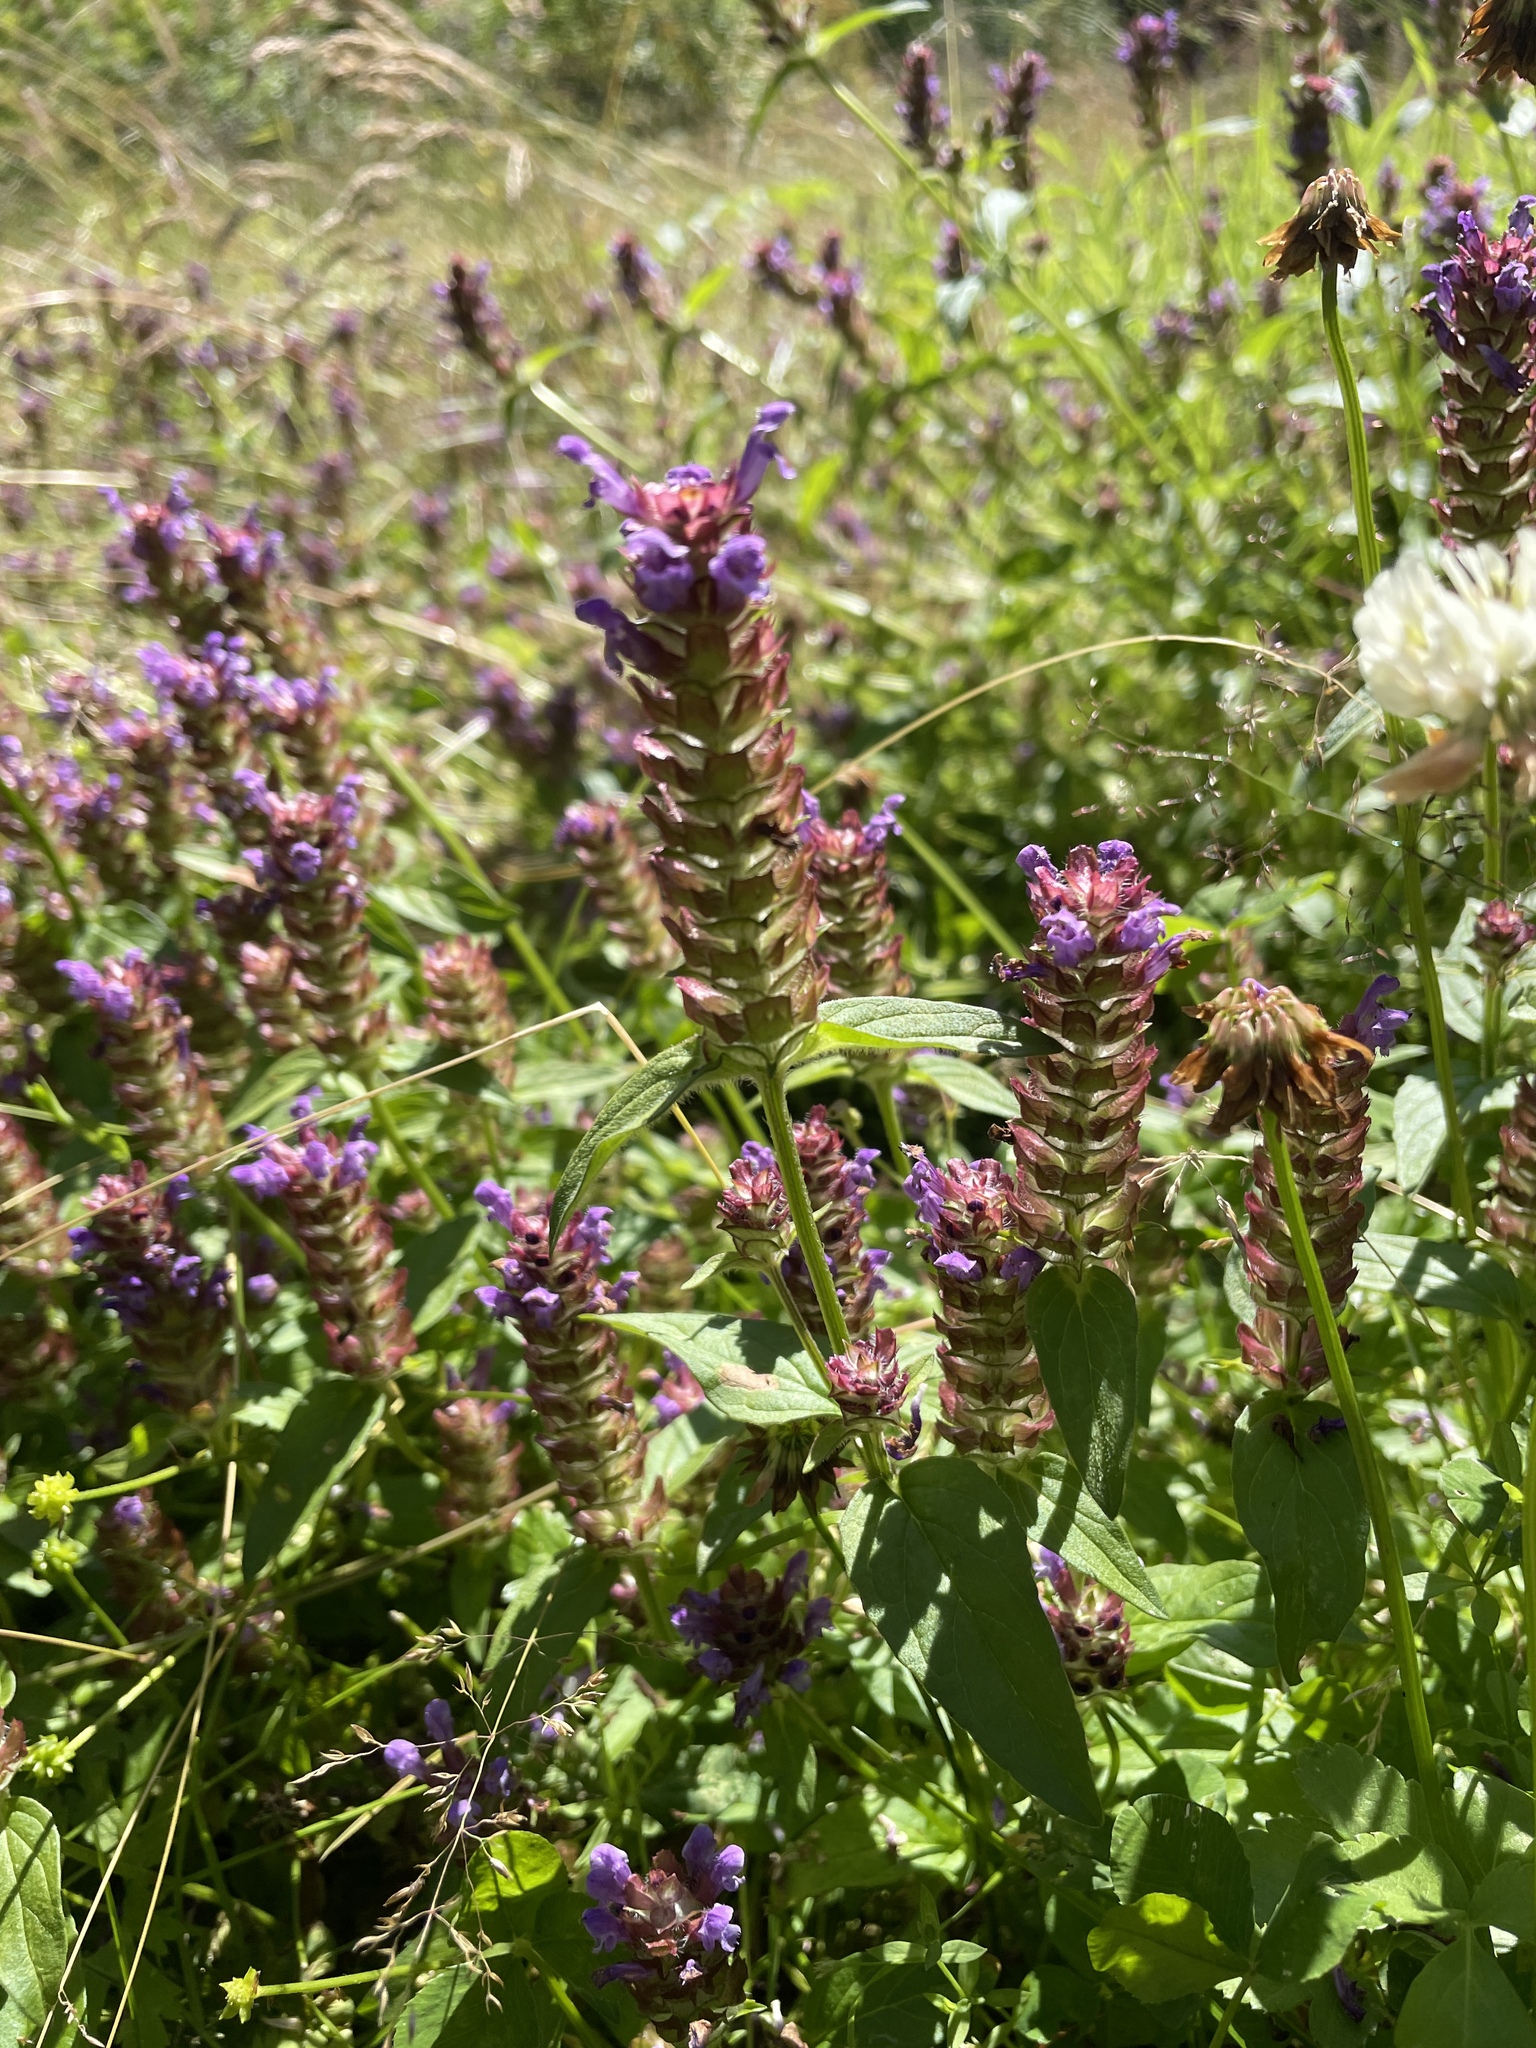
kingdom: Plantae
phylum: Tracheophyta
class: Magnoliopsida
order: Lamiales
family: Lamiaceae
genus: Prunella
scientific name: Prunella vulgaris
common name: Heal-all
